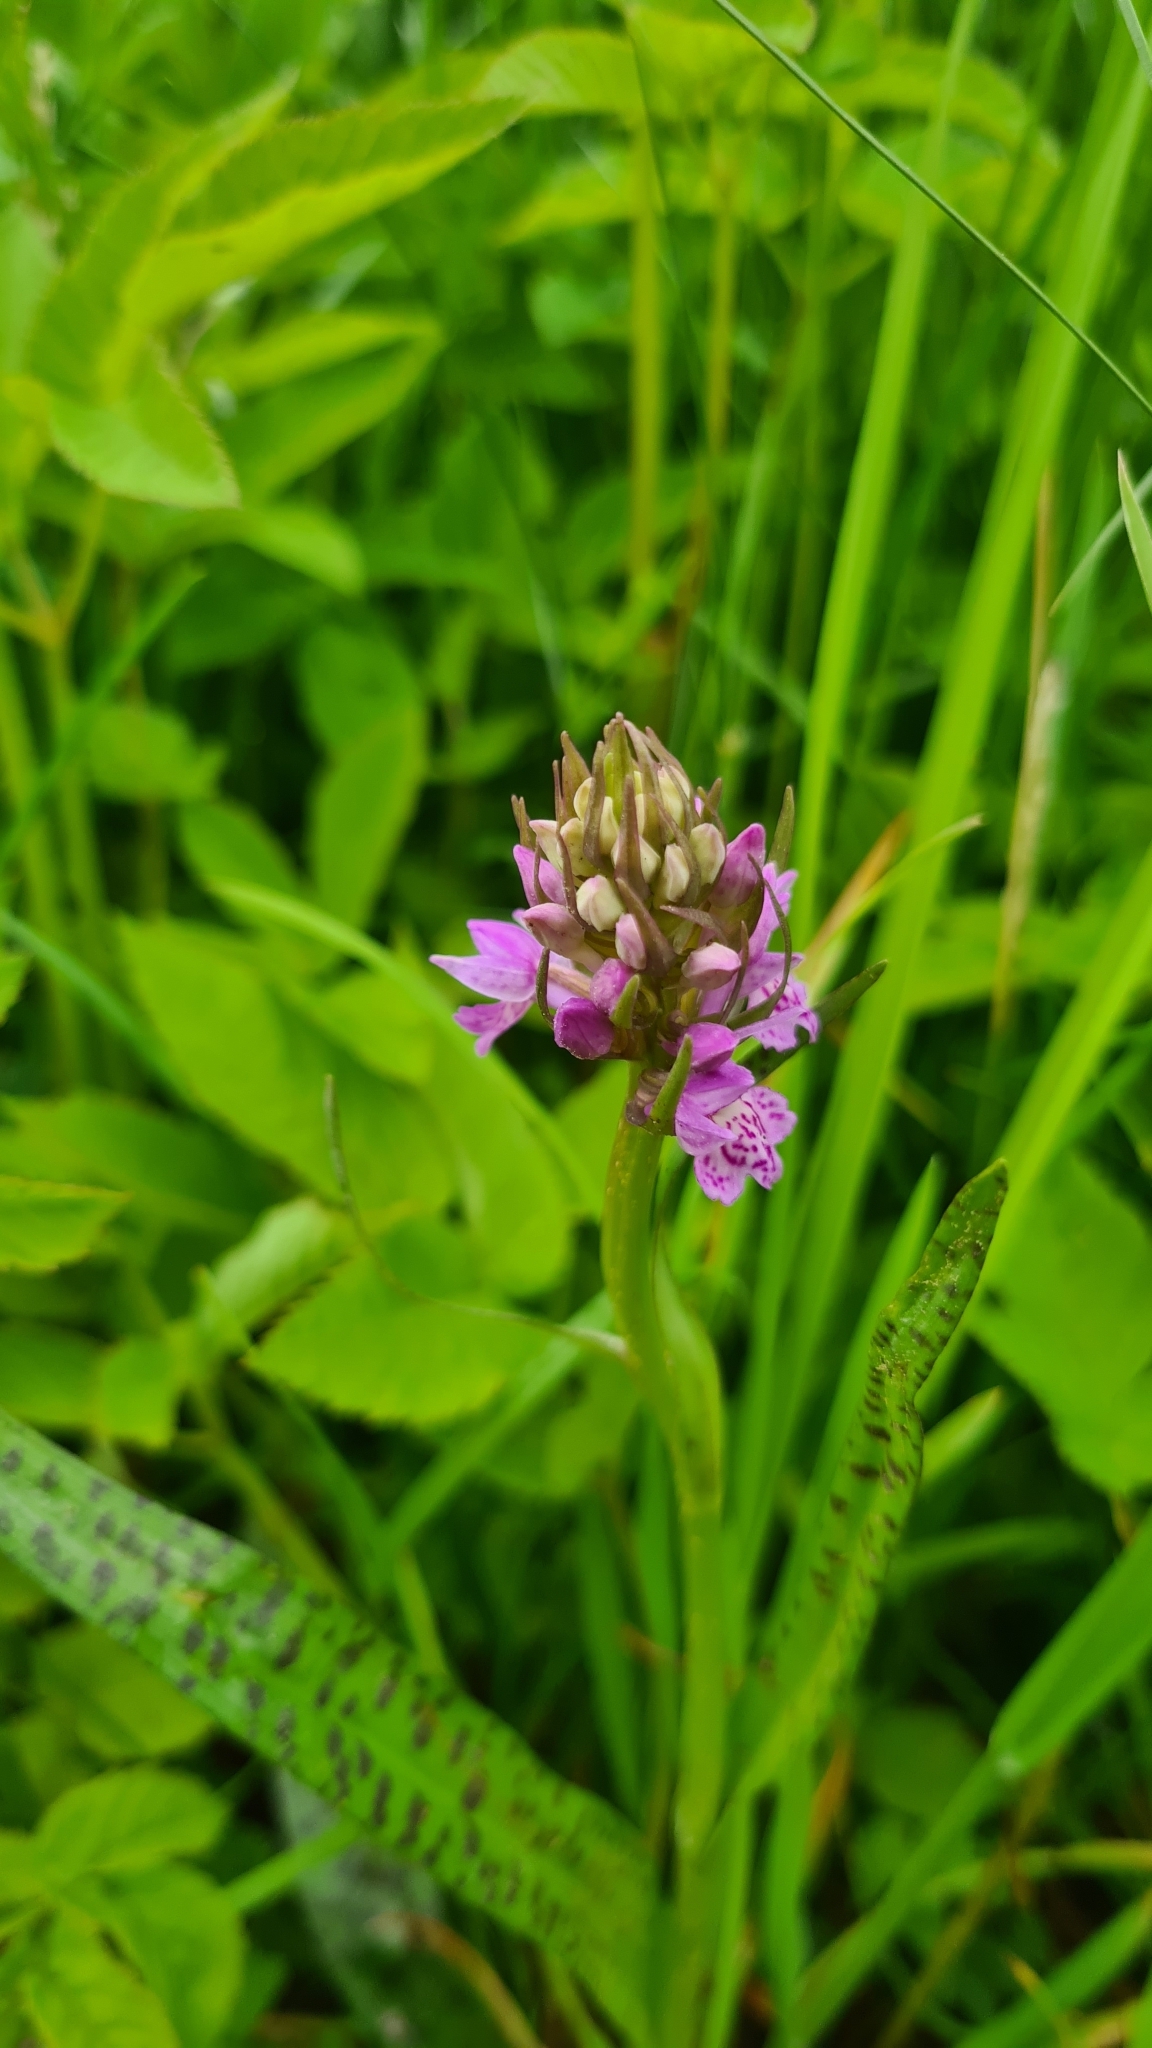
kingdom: Plantae
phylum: Tracheophyta
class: Liliopsida
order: Asparagales
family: Orchidaceae
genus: Dactylorhiza
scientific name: Dactylorhiza majalis
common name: Marsh orchid
